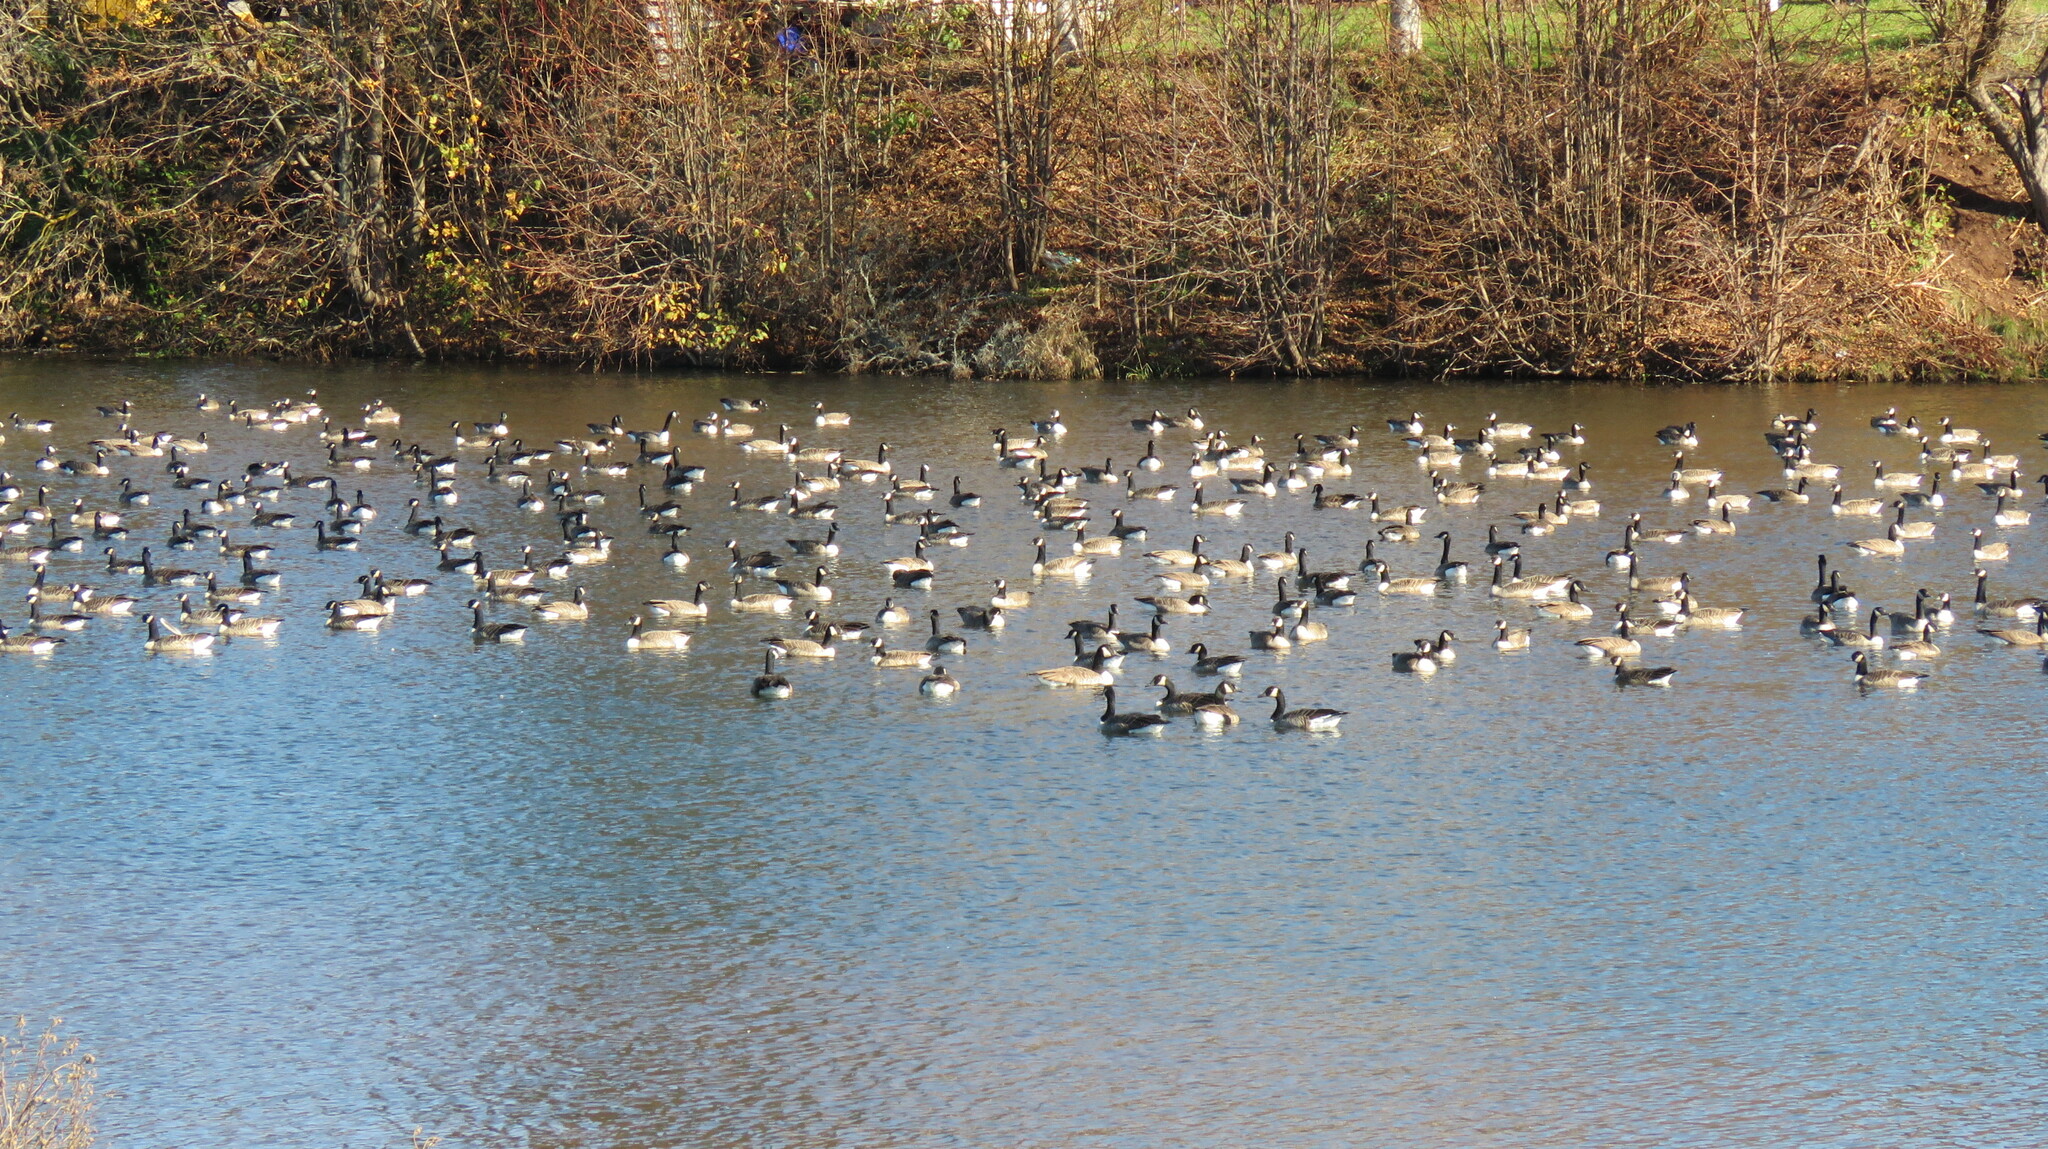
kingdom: Animalia
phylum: Chordata
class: Aves
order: Anseriformes
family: Anatidae
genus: Branta
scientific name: Branta canadensis
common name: Canada goose
